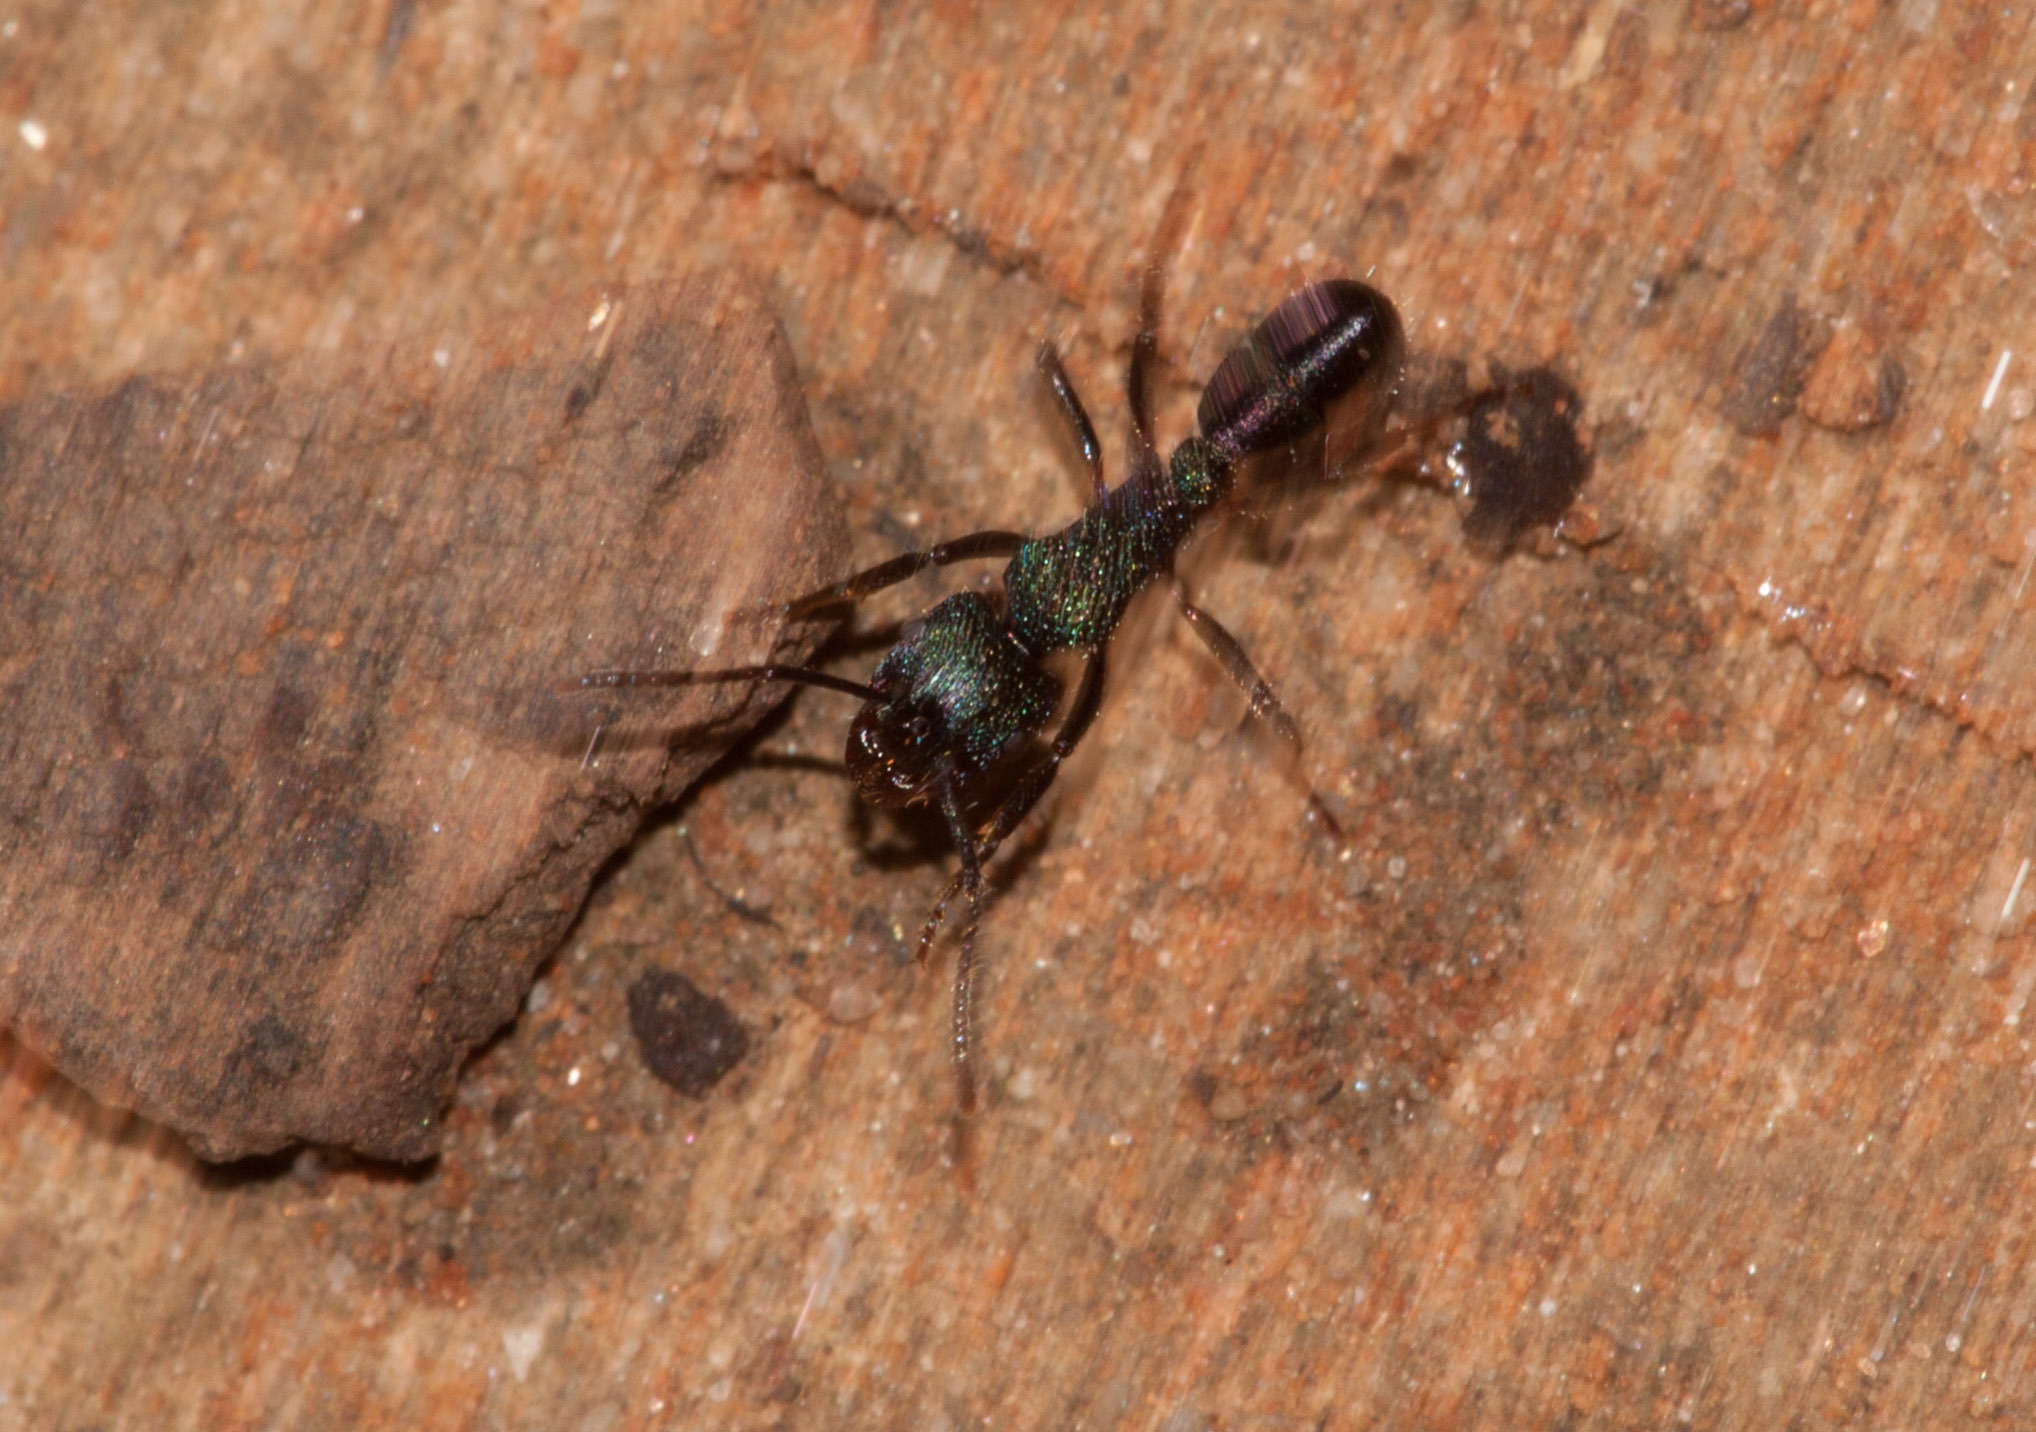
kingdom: Animalia
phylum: Arthropoda
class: Insecta
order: Hymenoptera
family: Formicidae
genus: Rhytidoponera
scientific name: Rhytidoponera metallica
